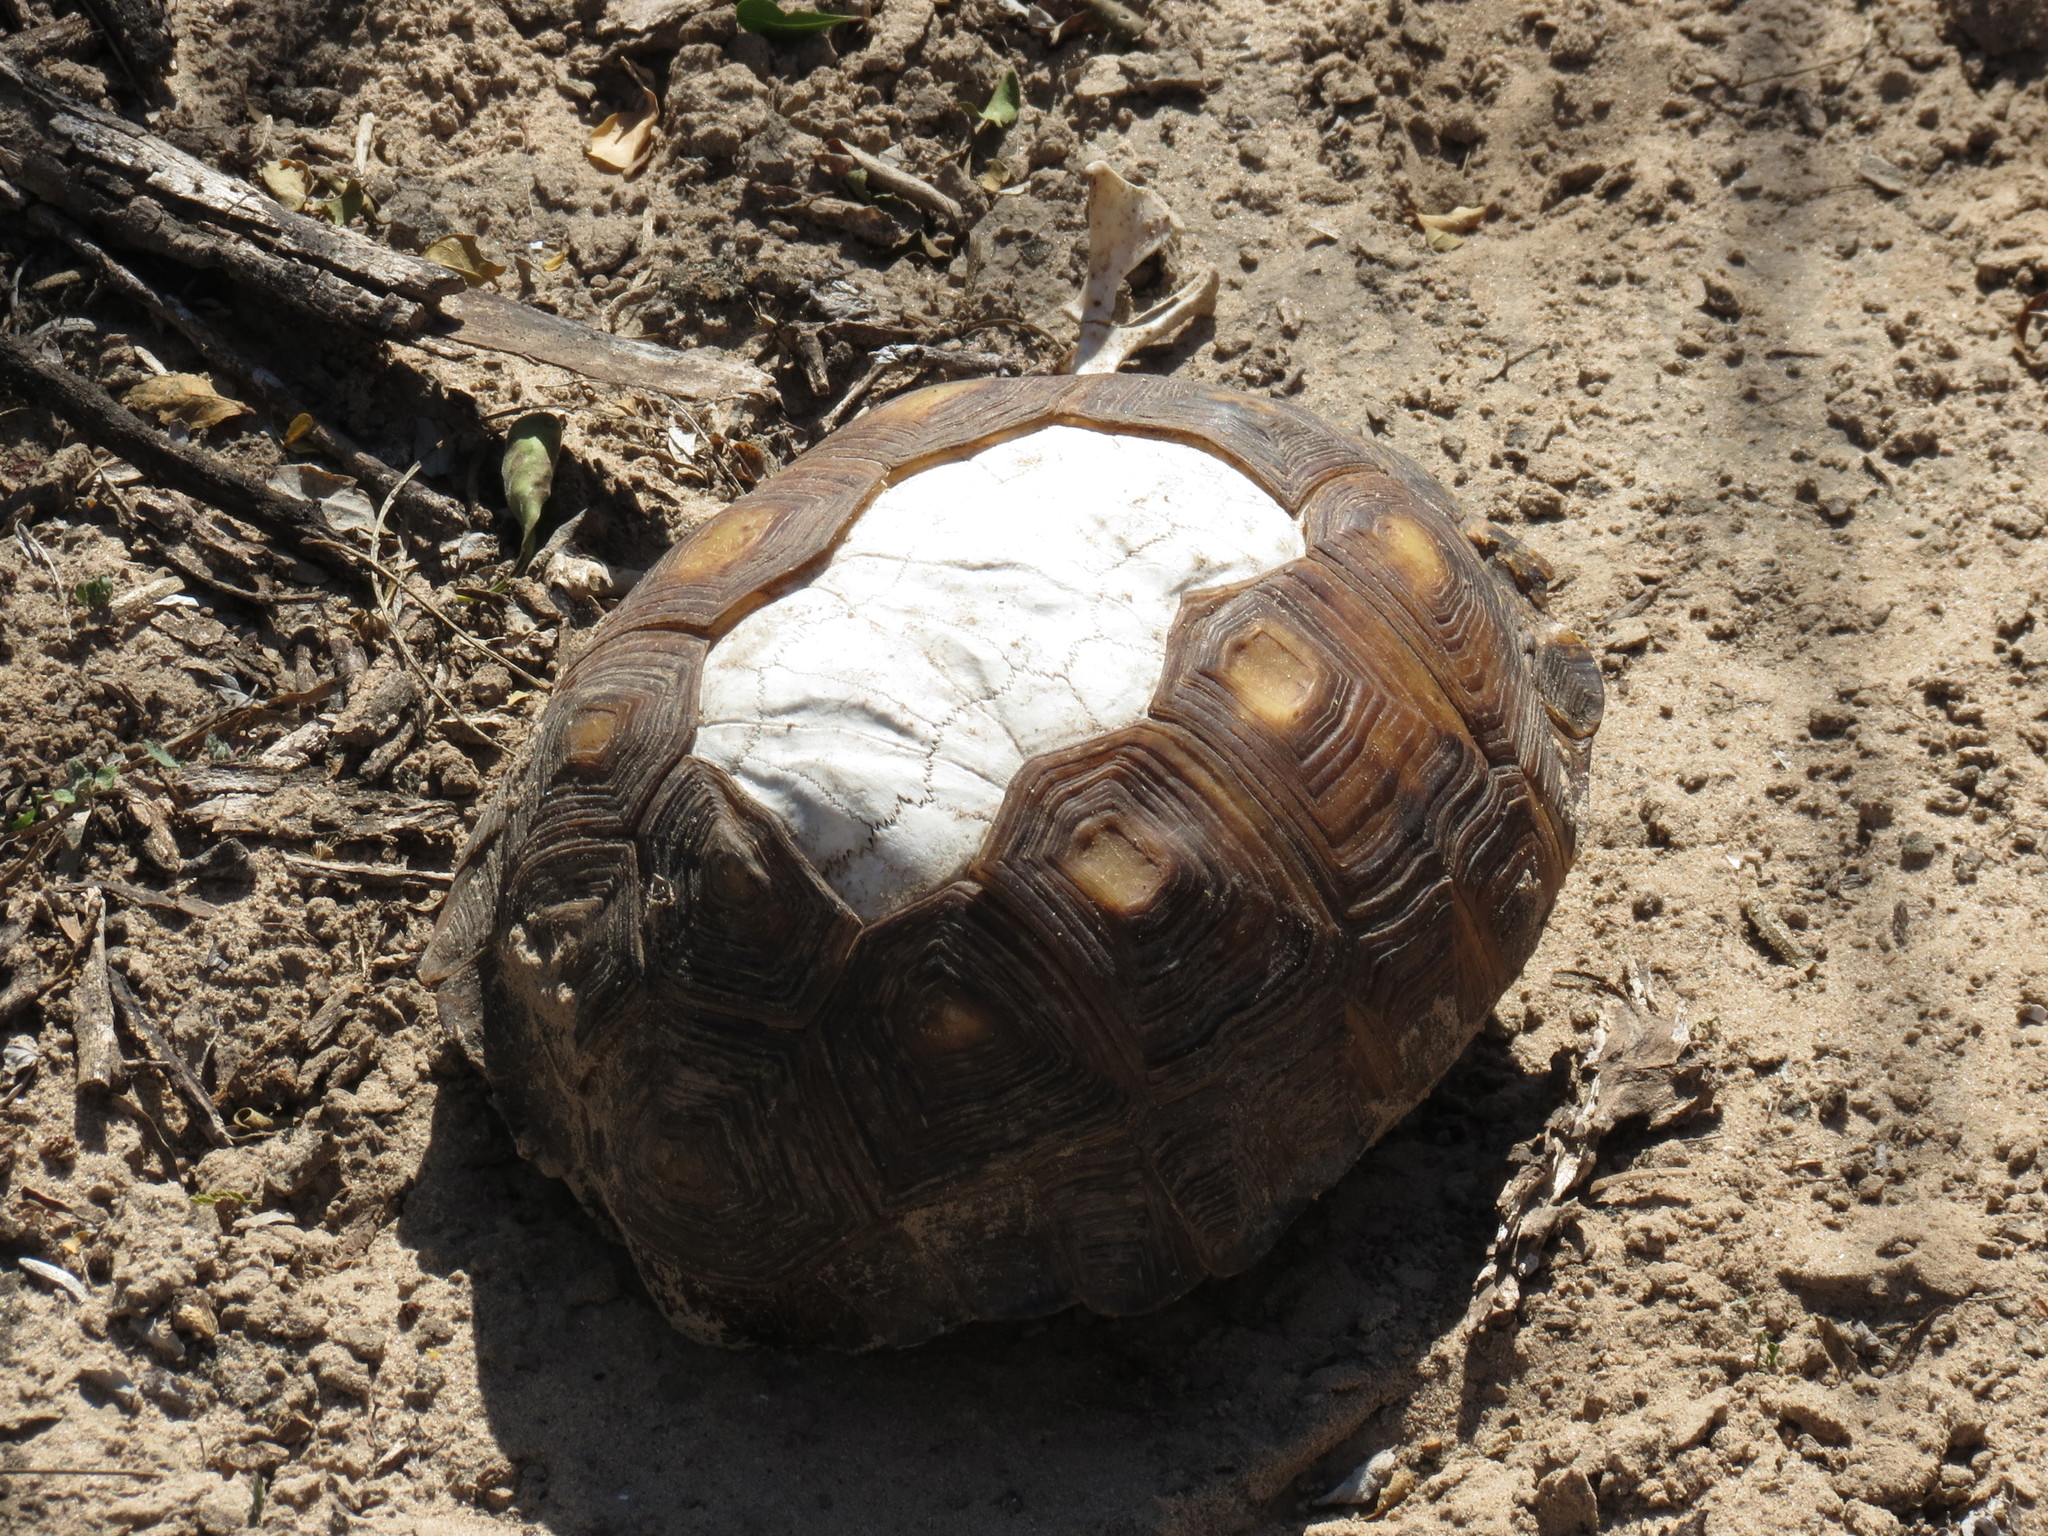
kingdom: Animalia
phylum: Chordata
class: Testudines
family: Testudinidae
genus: Gopherus
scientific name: Gopherus berlandieri
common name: Texas (gopher )tortoise
